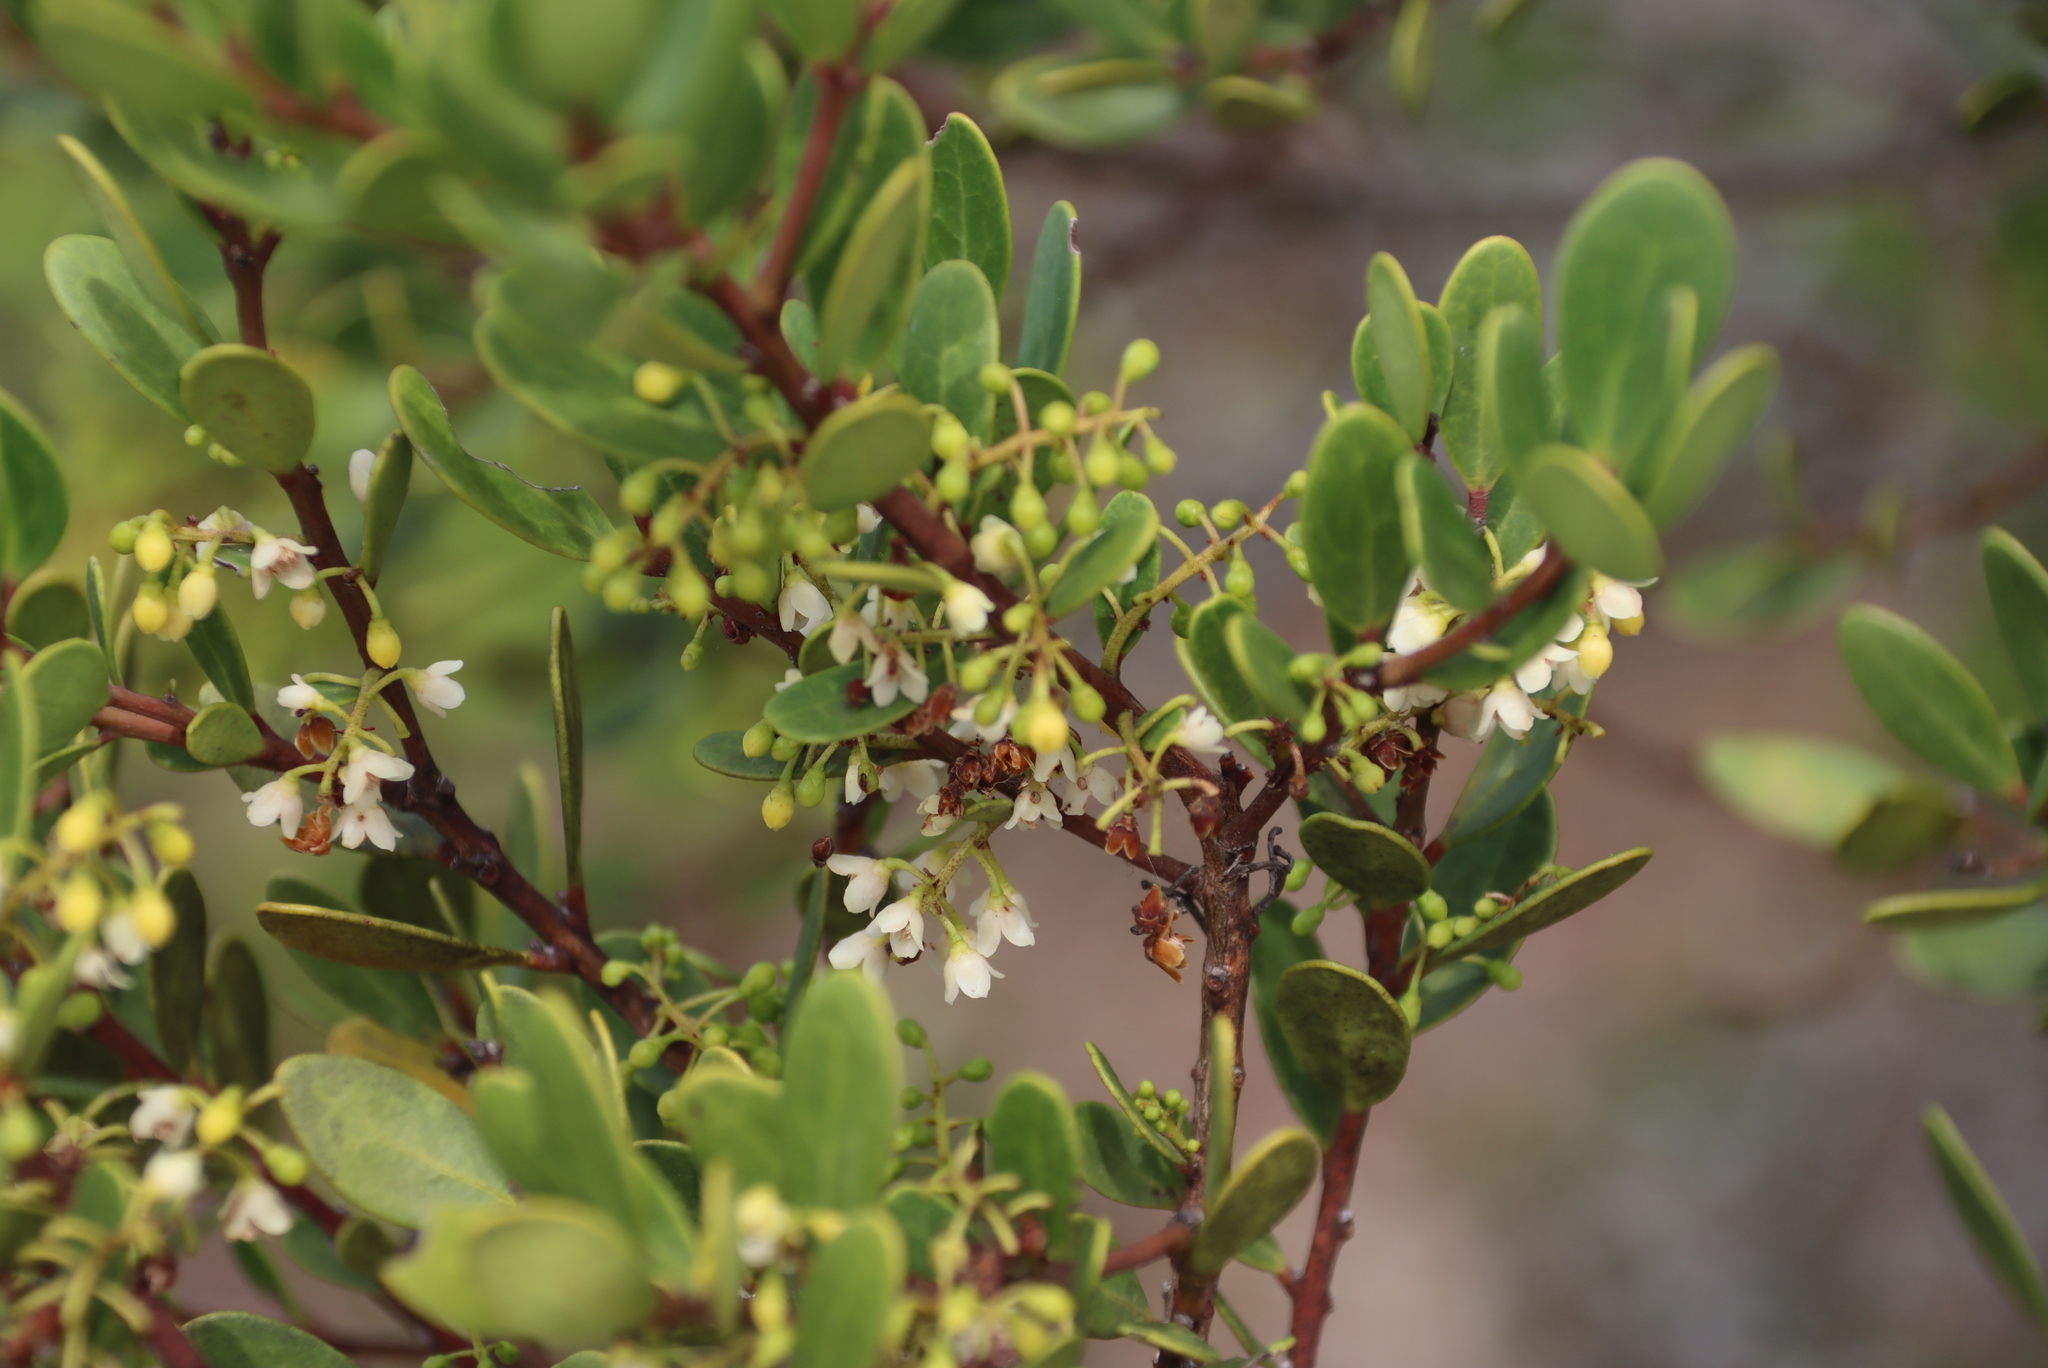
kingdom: Plantae
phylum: Tracheophyta
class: Magnoliopsida
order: Ericales
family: Ebenaceae
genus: Euclea
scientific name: Euclea racemosa
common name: Dune guarri
